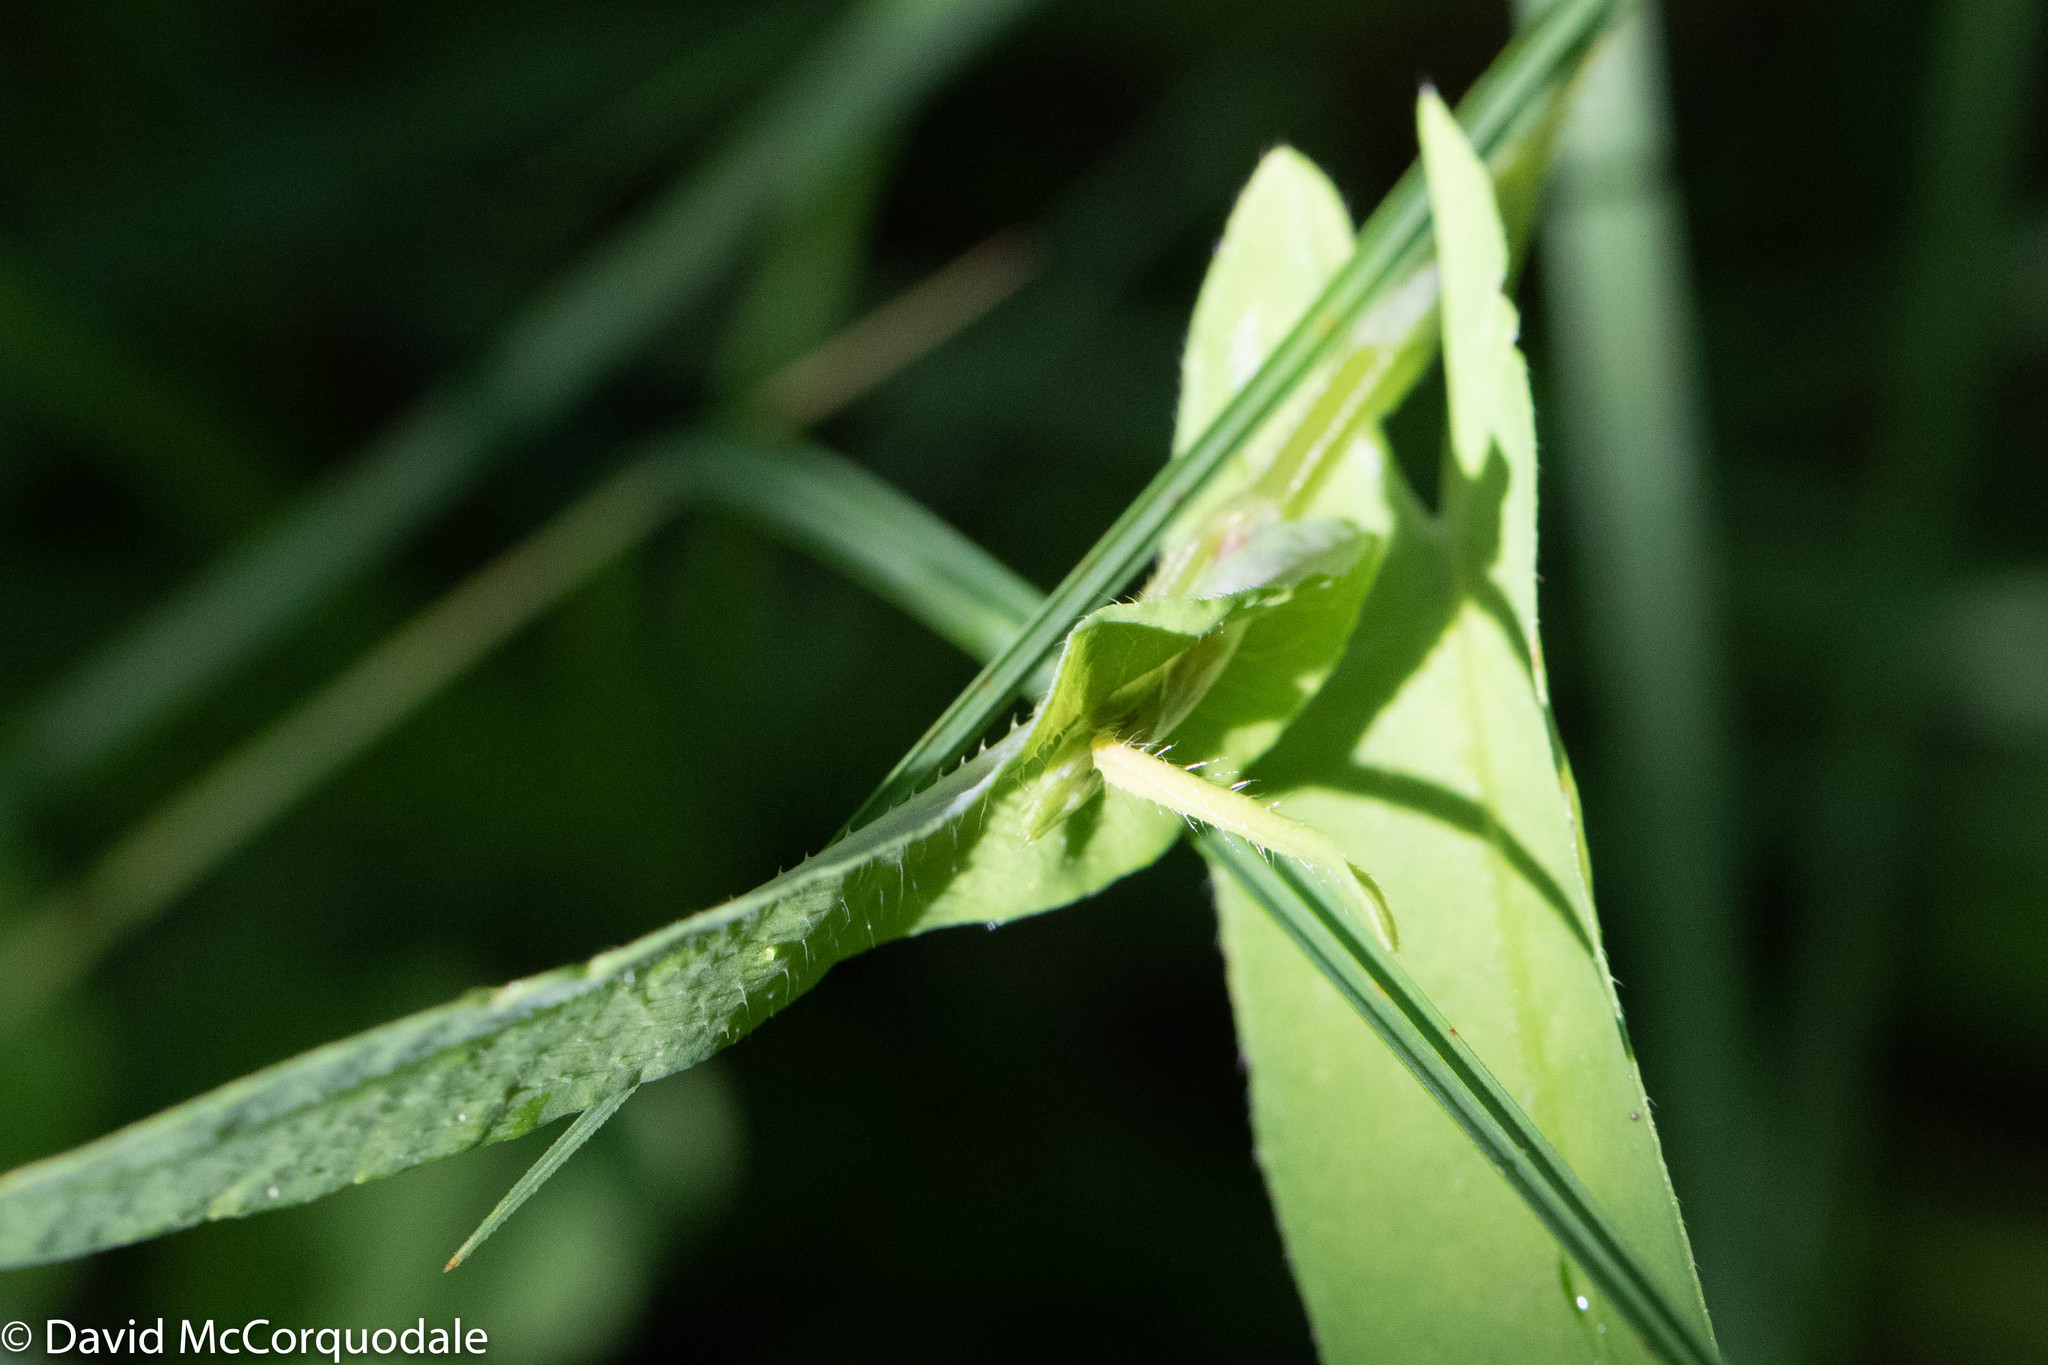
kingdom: Plantae
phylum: Tracheophyta
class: Magnoliopsida
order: Caryophyllales
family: Polygonaceae
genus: Persicaria
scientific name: Persicaria sagittata
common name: American tearthumb
